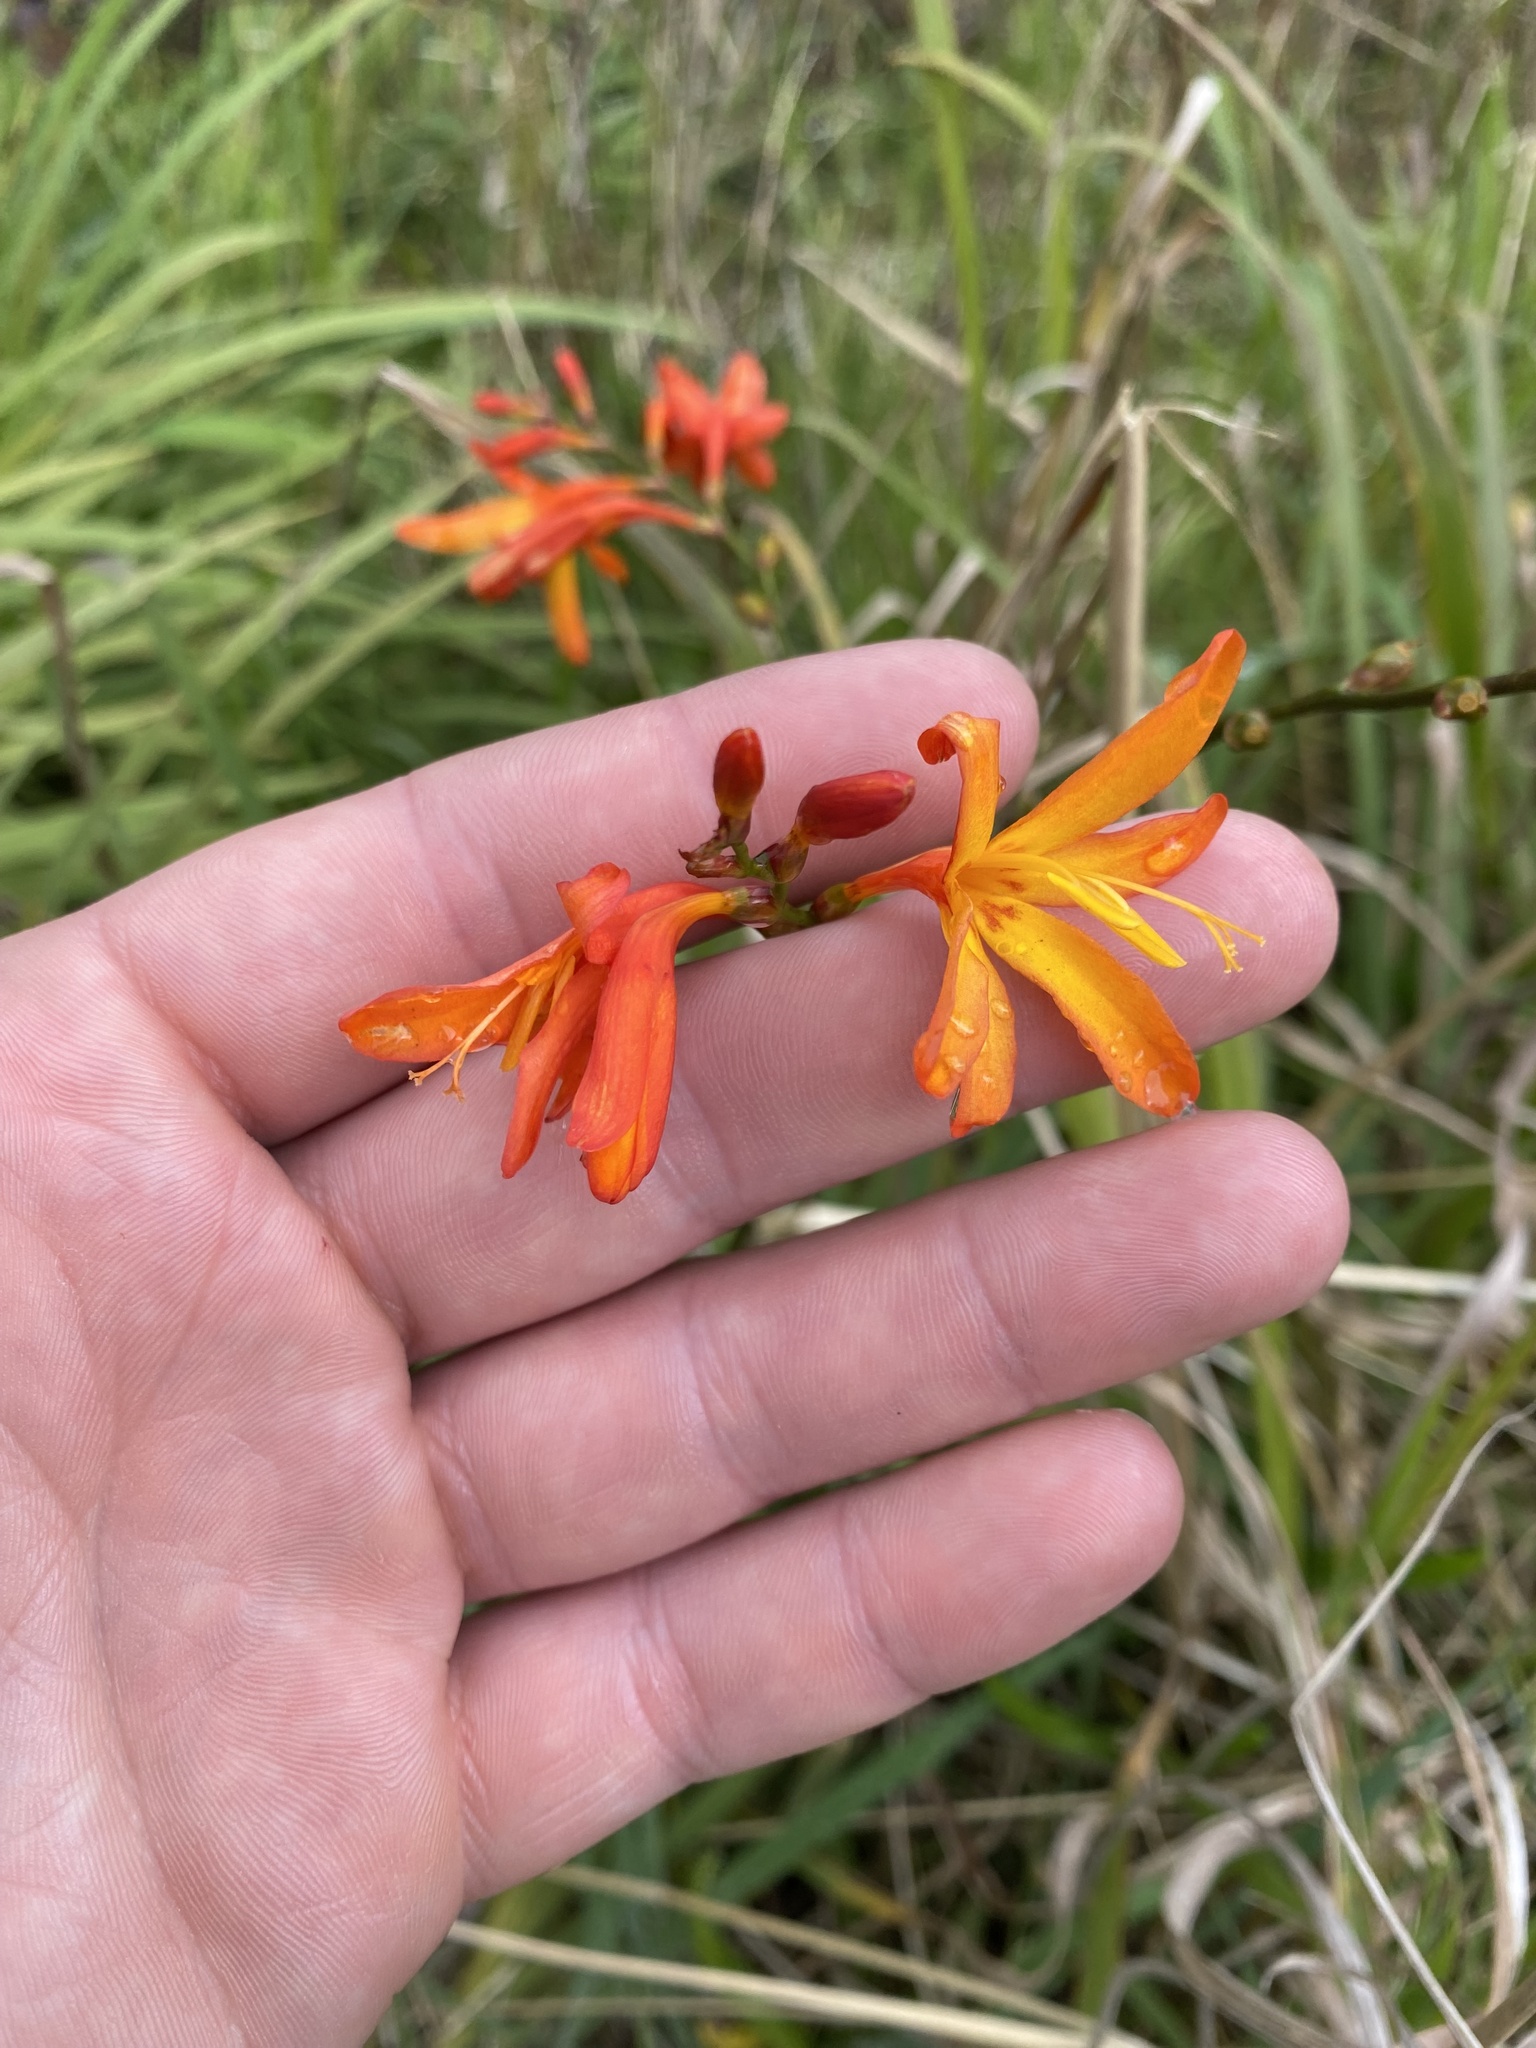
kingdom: Plantae
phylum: Tracheophyta
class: Liliopsida
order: Asparagales
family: Iridaceae
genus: Crocosmia
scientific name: Crocosmia crocosmiiflora
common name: Montbretia
